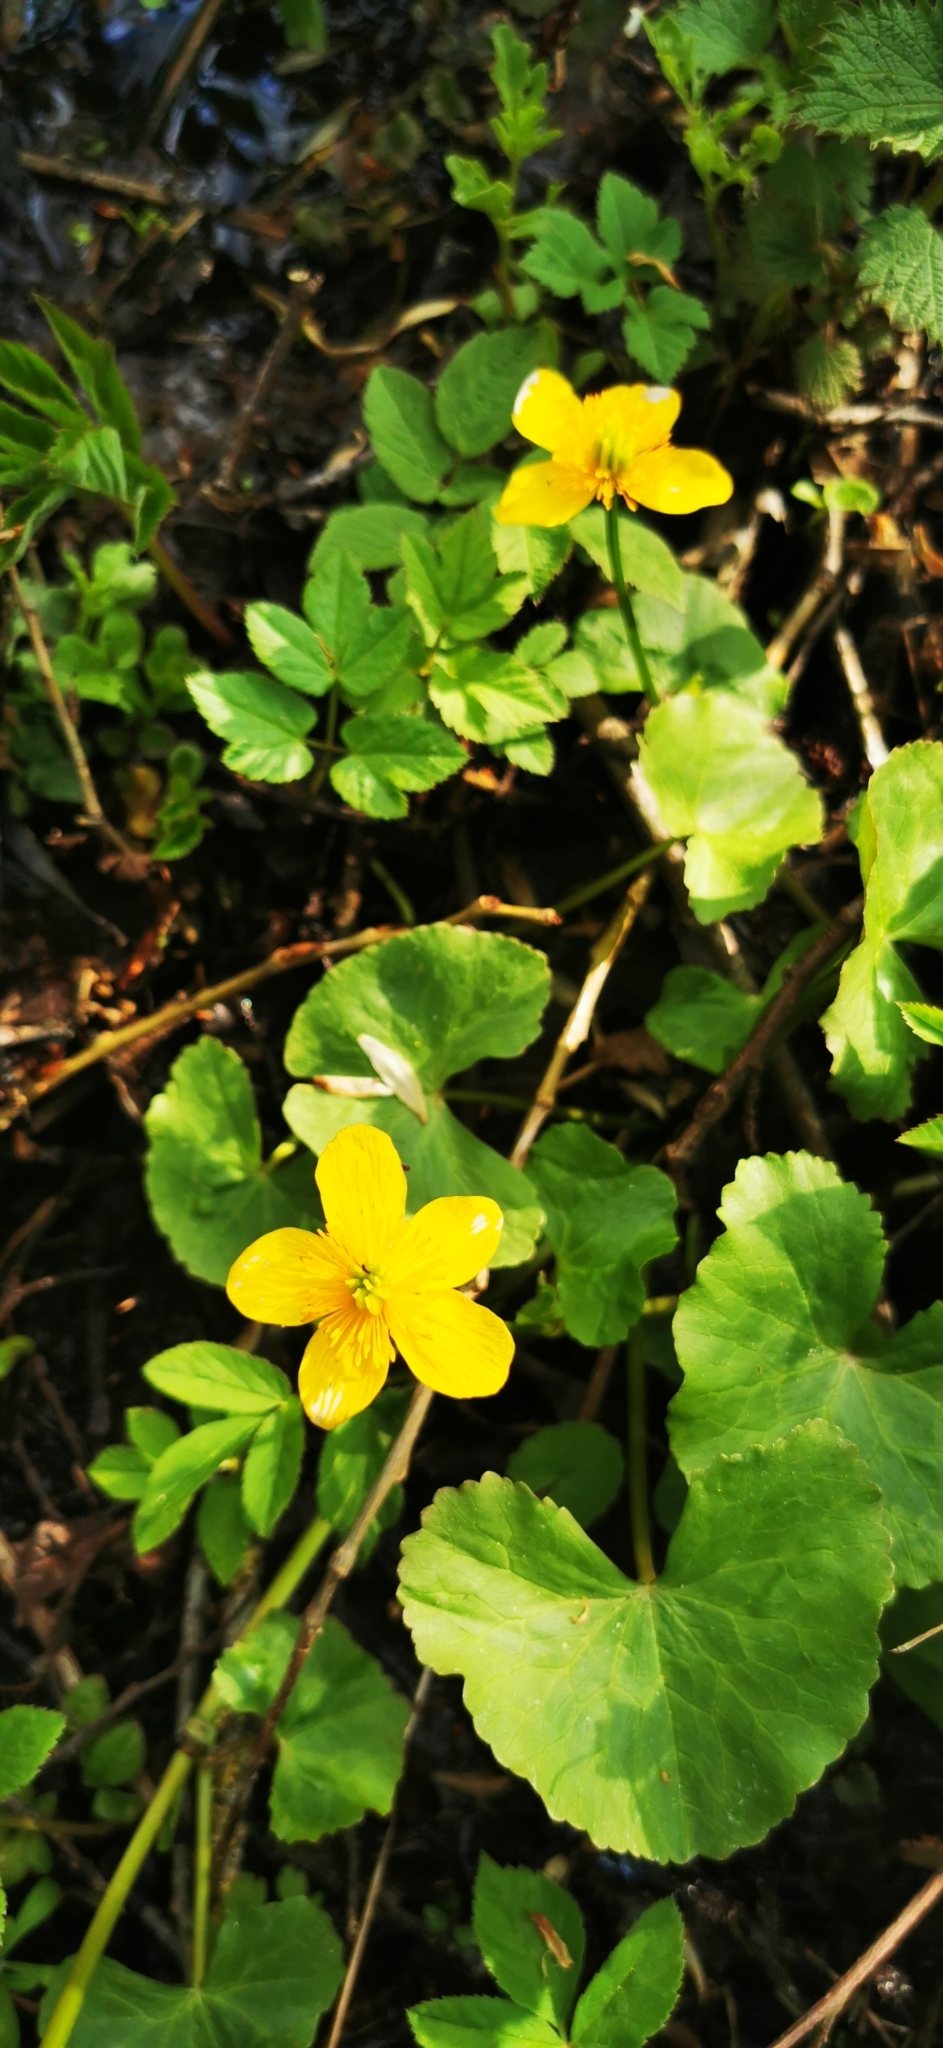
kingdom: Plantae
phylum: Tracheophyta
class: Magnoliopsida
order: Ranunculales
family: Ranunculaceae
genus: Caltha
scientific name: Caltha palustris
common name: Marsh marigold
